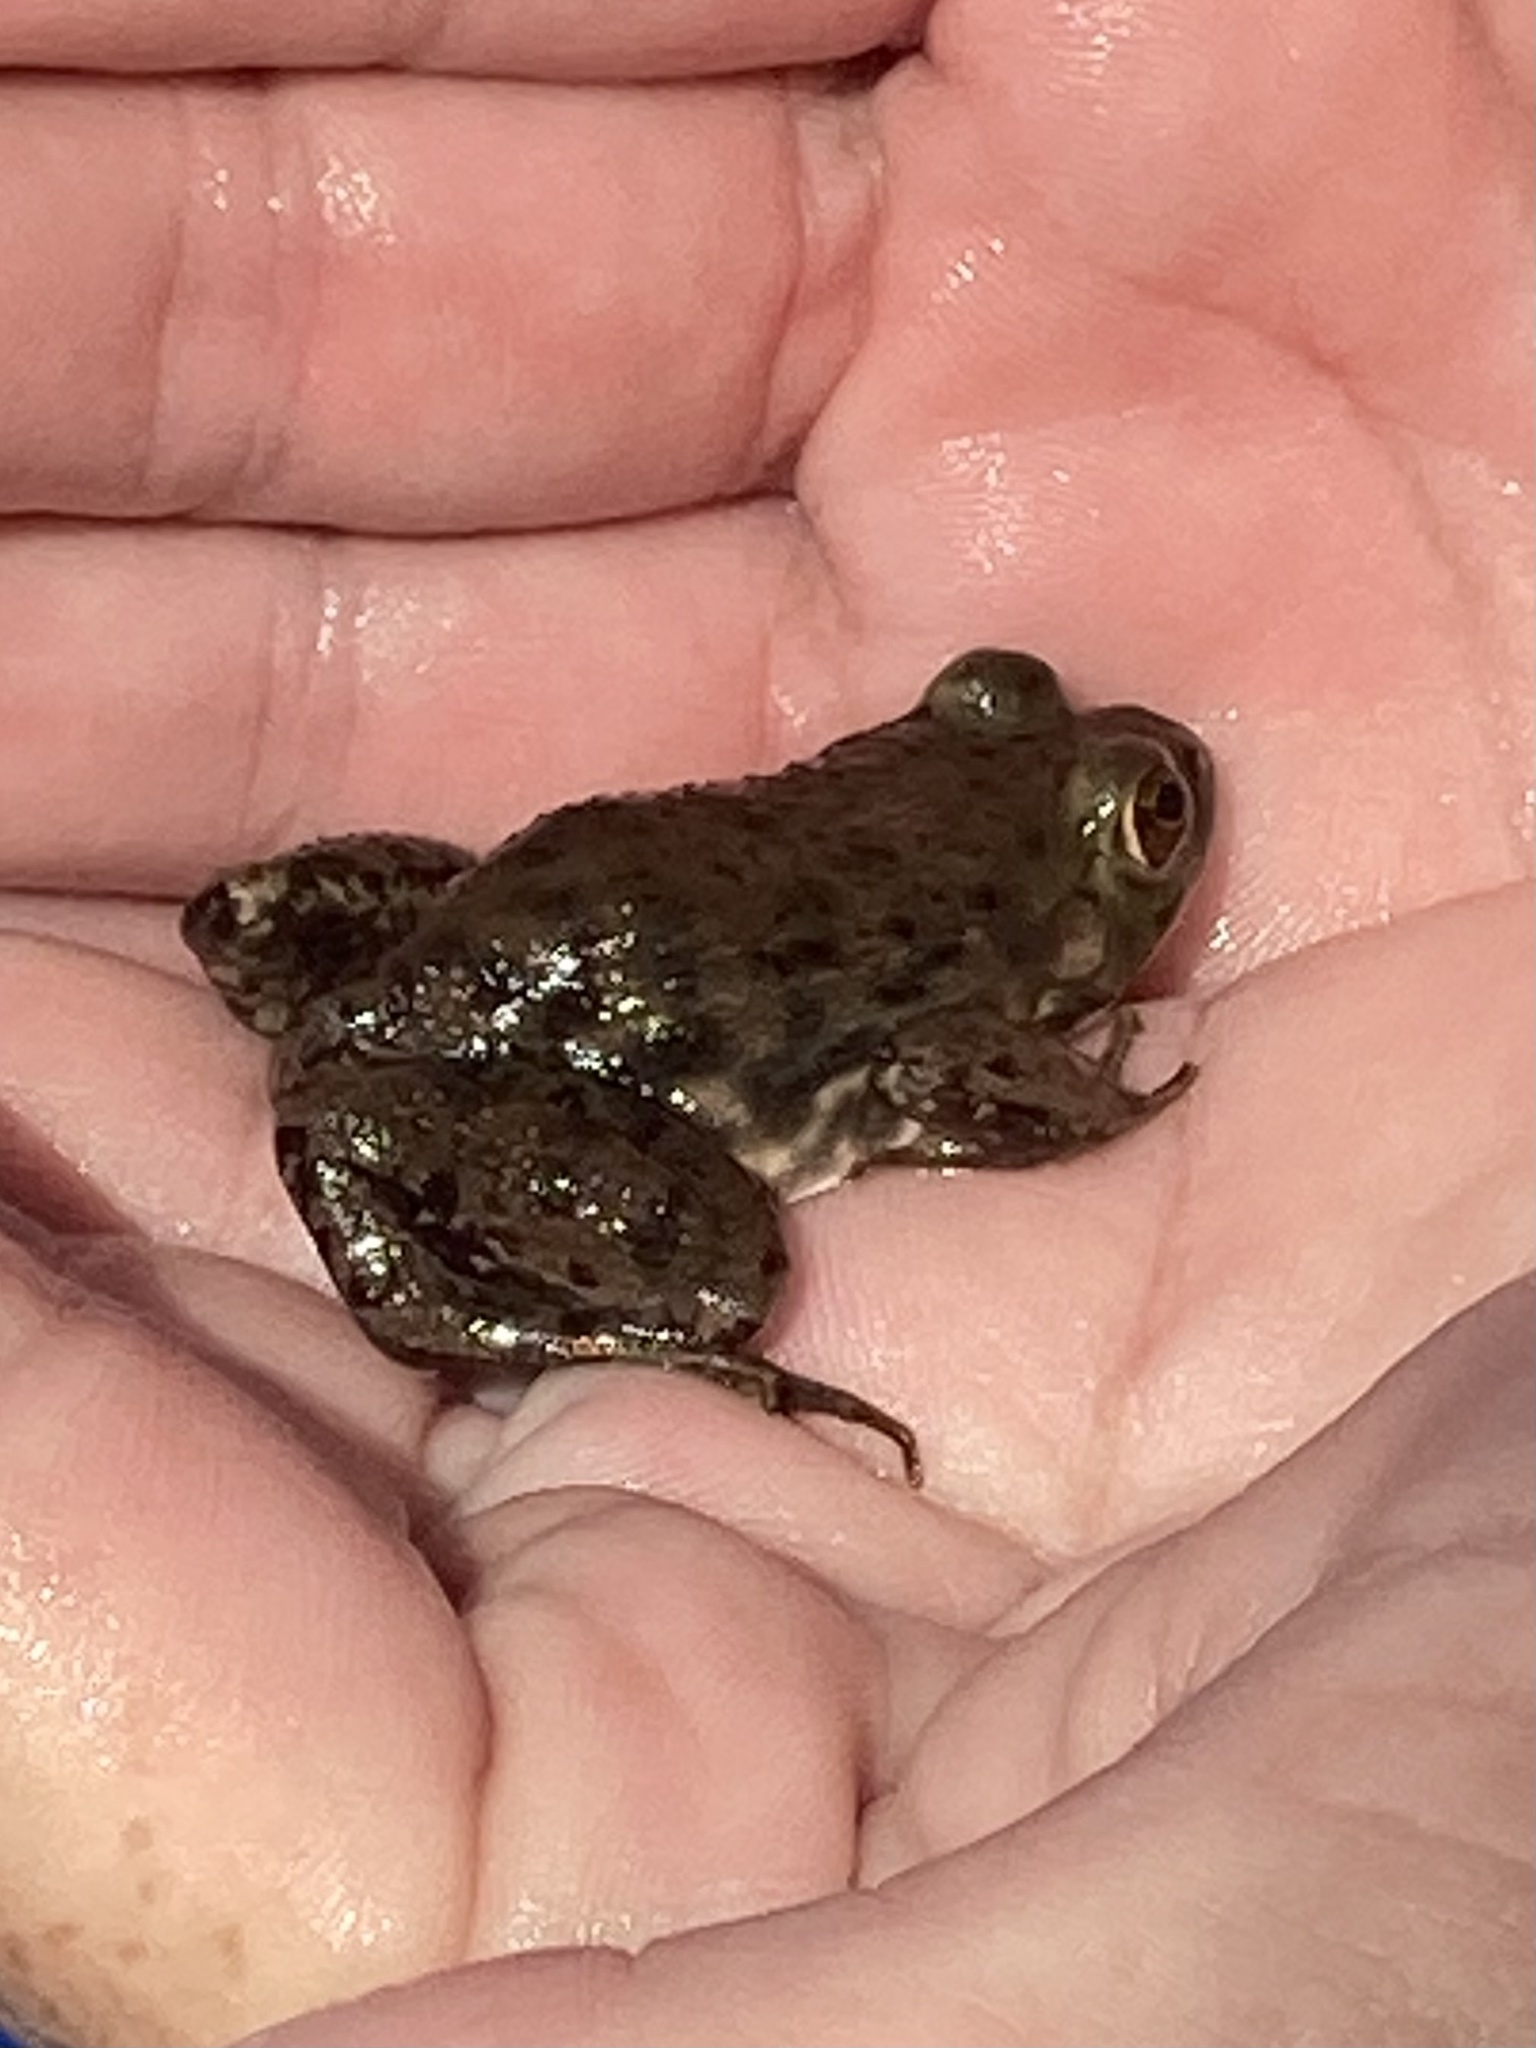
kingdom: Animalia
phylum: Chordata
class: Amphibia
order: Anura
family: Ranidae
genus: Lithobates
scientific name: Lithobates catesbeianus
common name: American bullfrog
